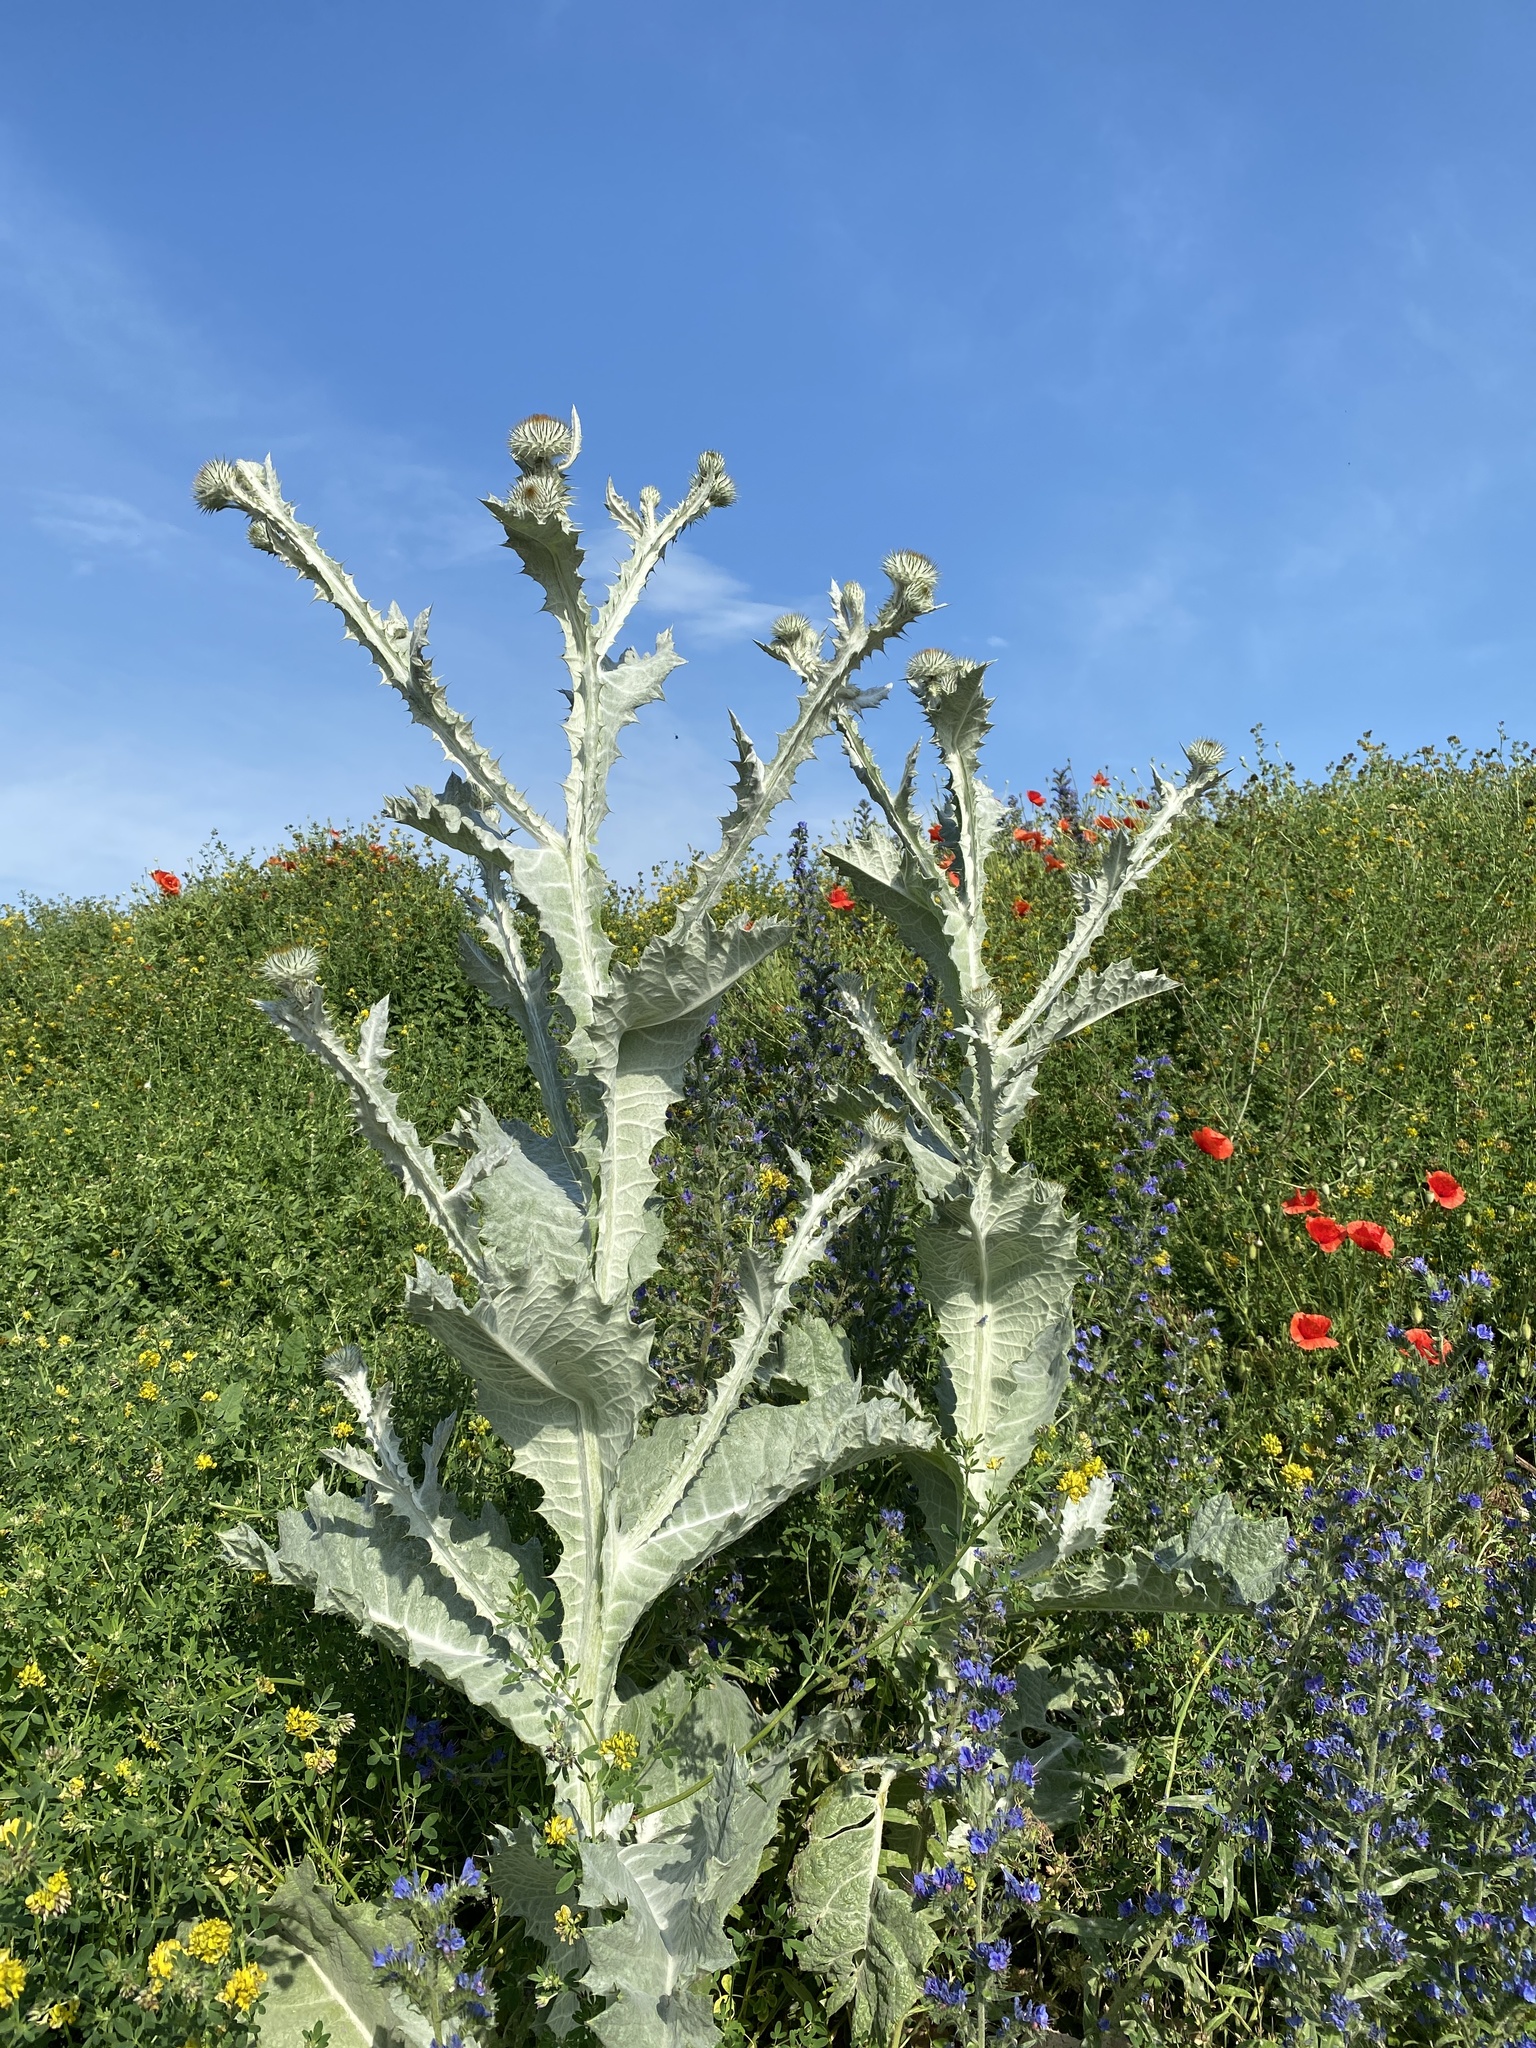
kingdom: Plantae
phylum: Tracheophyta
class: Magnoliopsida
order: Asterales
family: Asteraceae
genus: Onopordum
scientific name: Onopordum acanthium
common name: Scotch thistle
